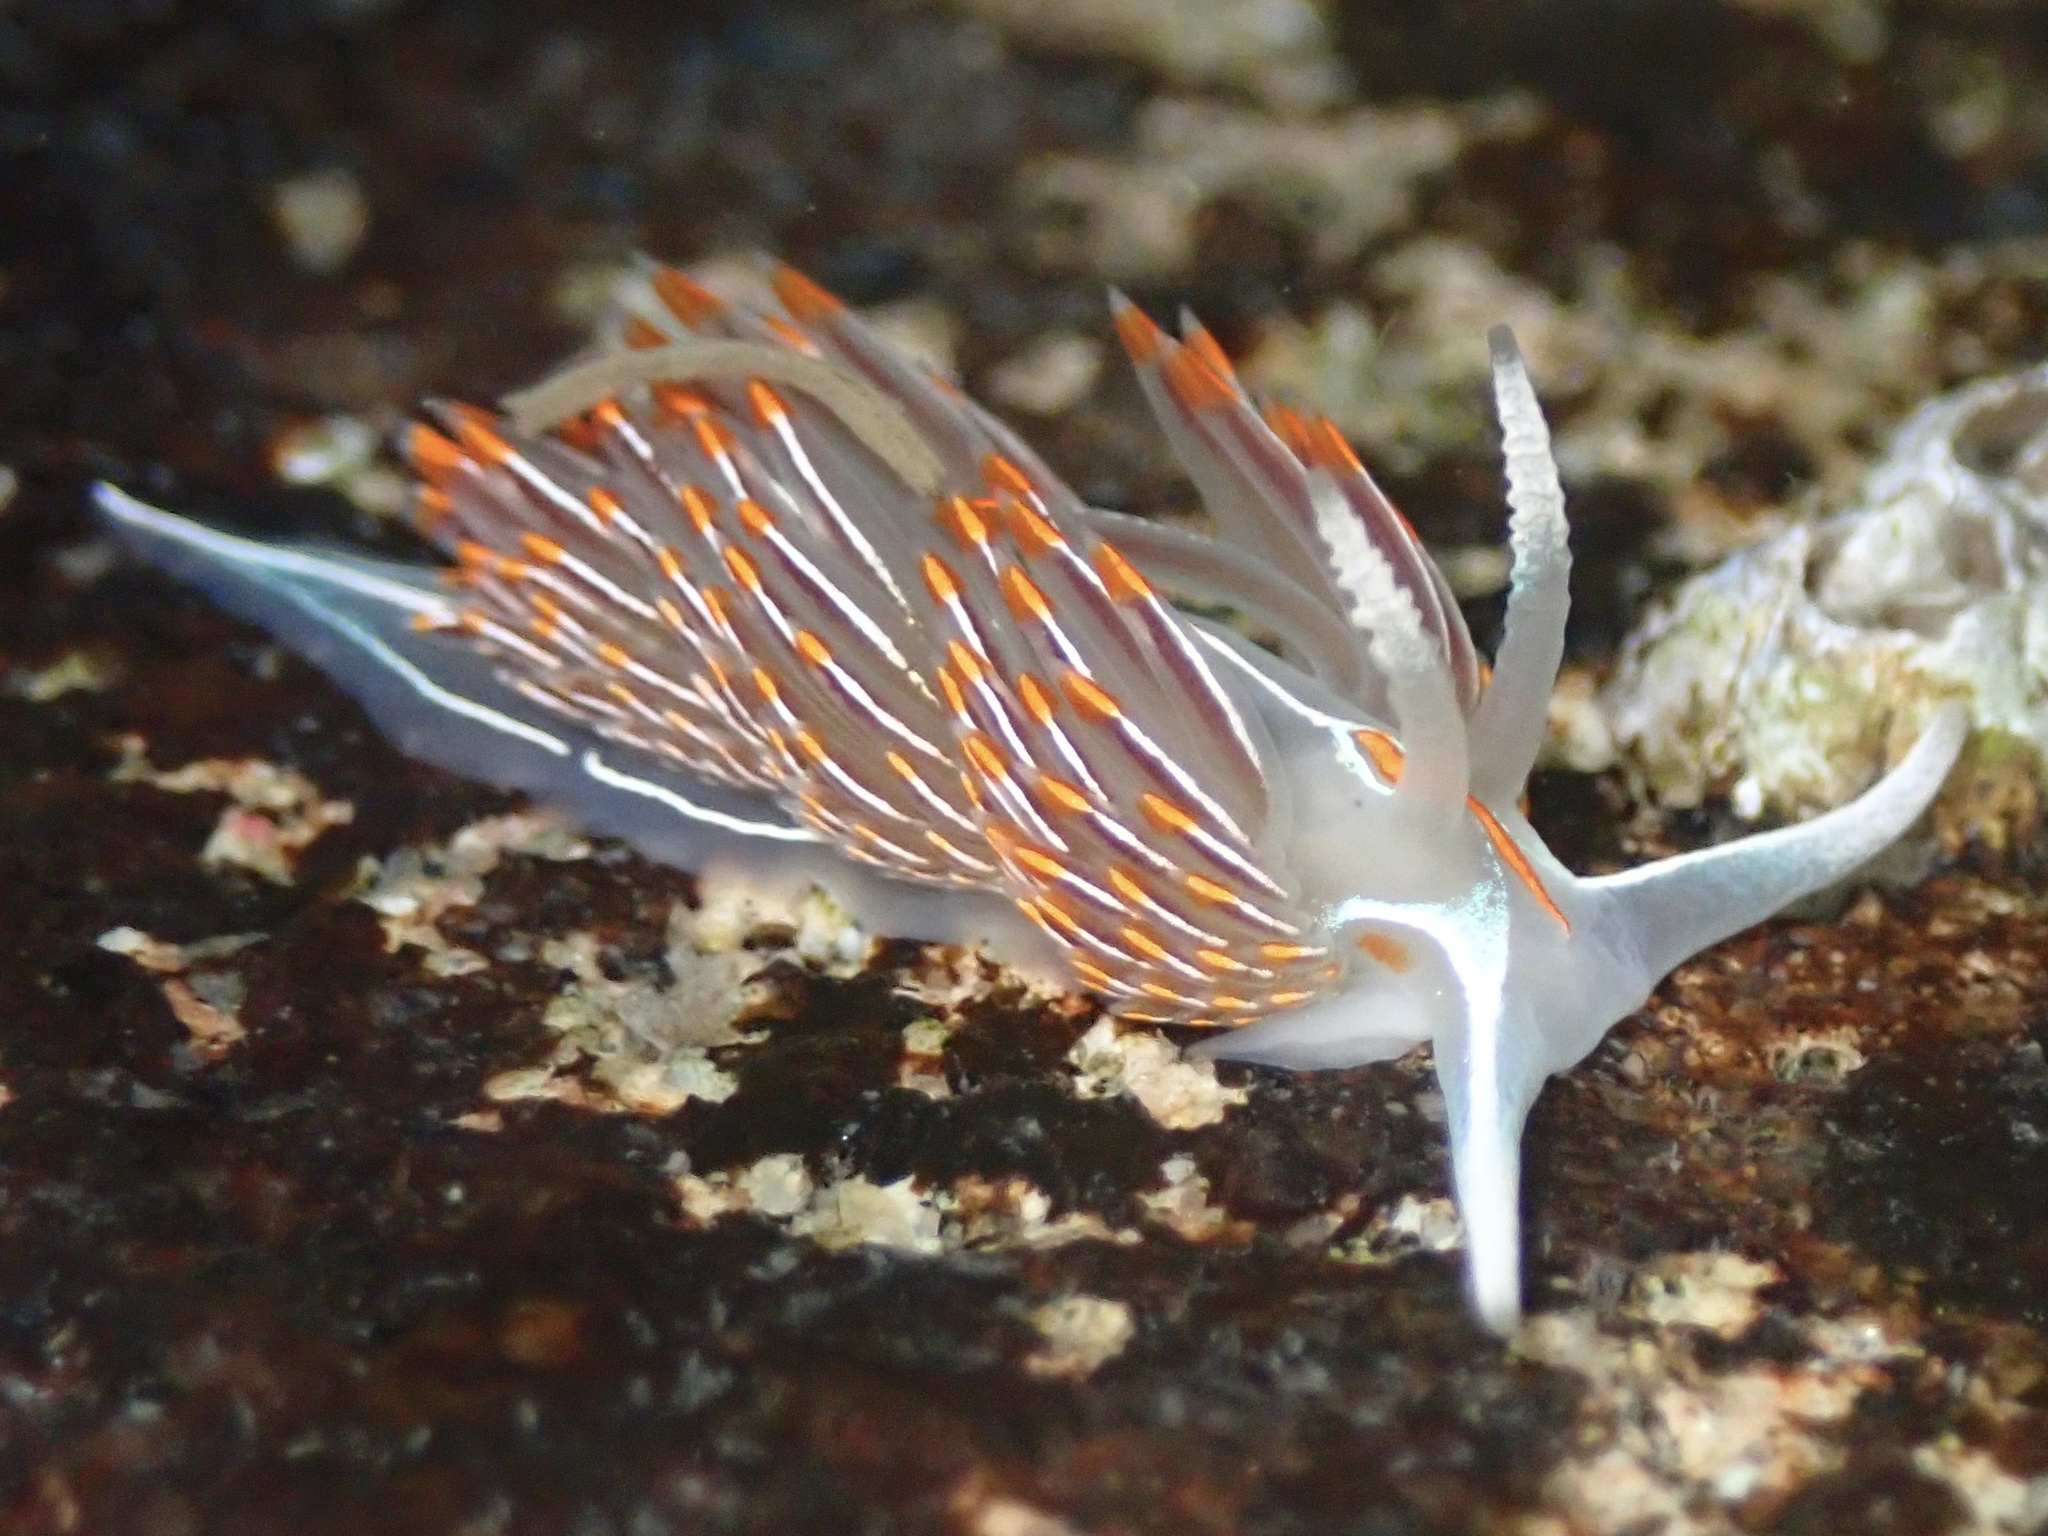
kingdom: Animalia
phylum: Mollusca
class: Gastropoda
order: Nudibranchia
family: Myrrhinidae
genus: Hermissenda
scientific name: Hermissenda crassicornis
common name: Hermissenda
